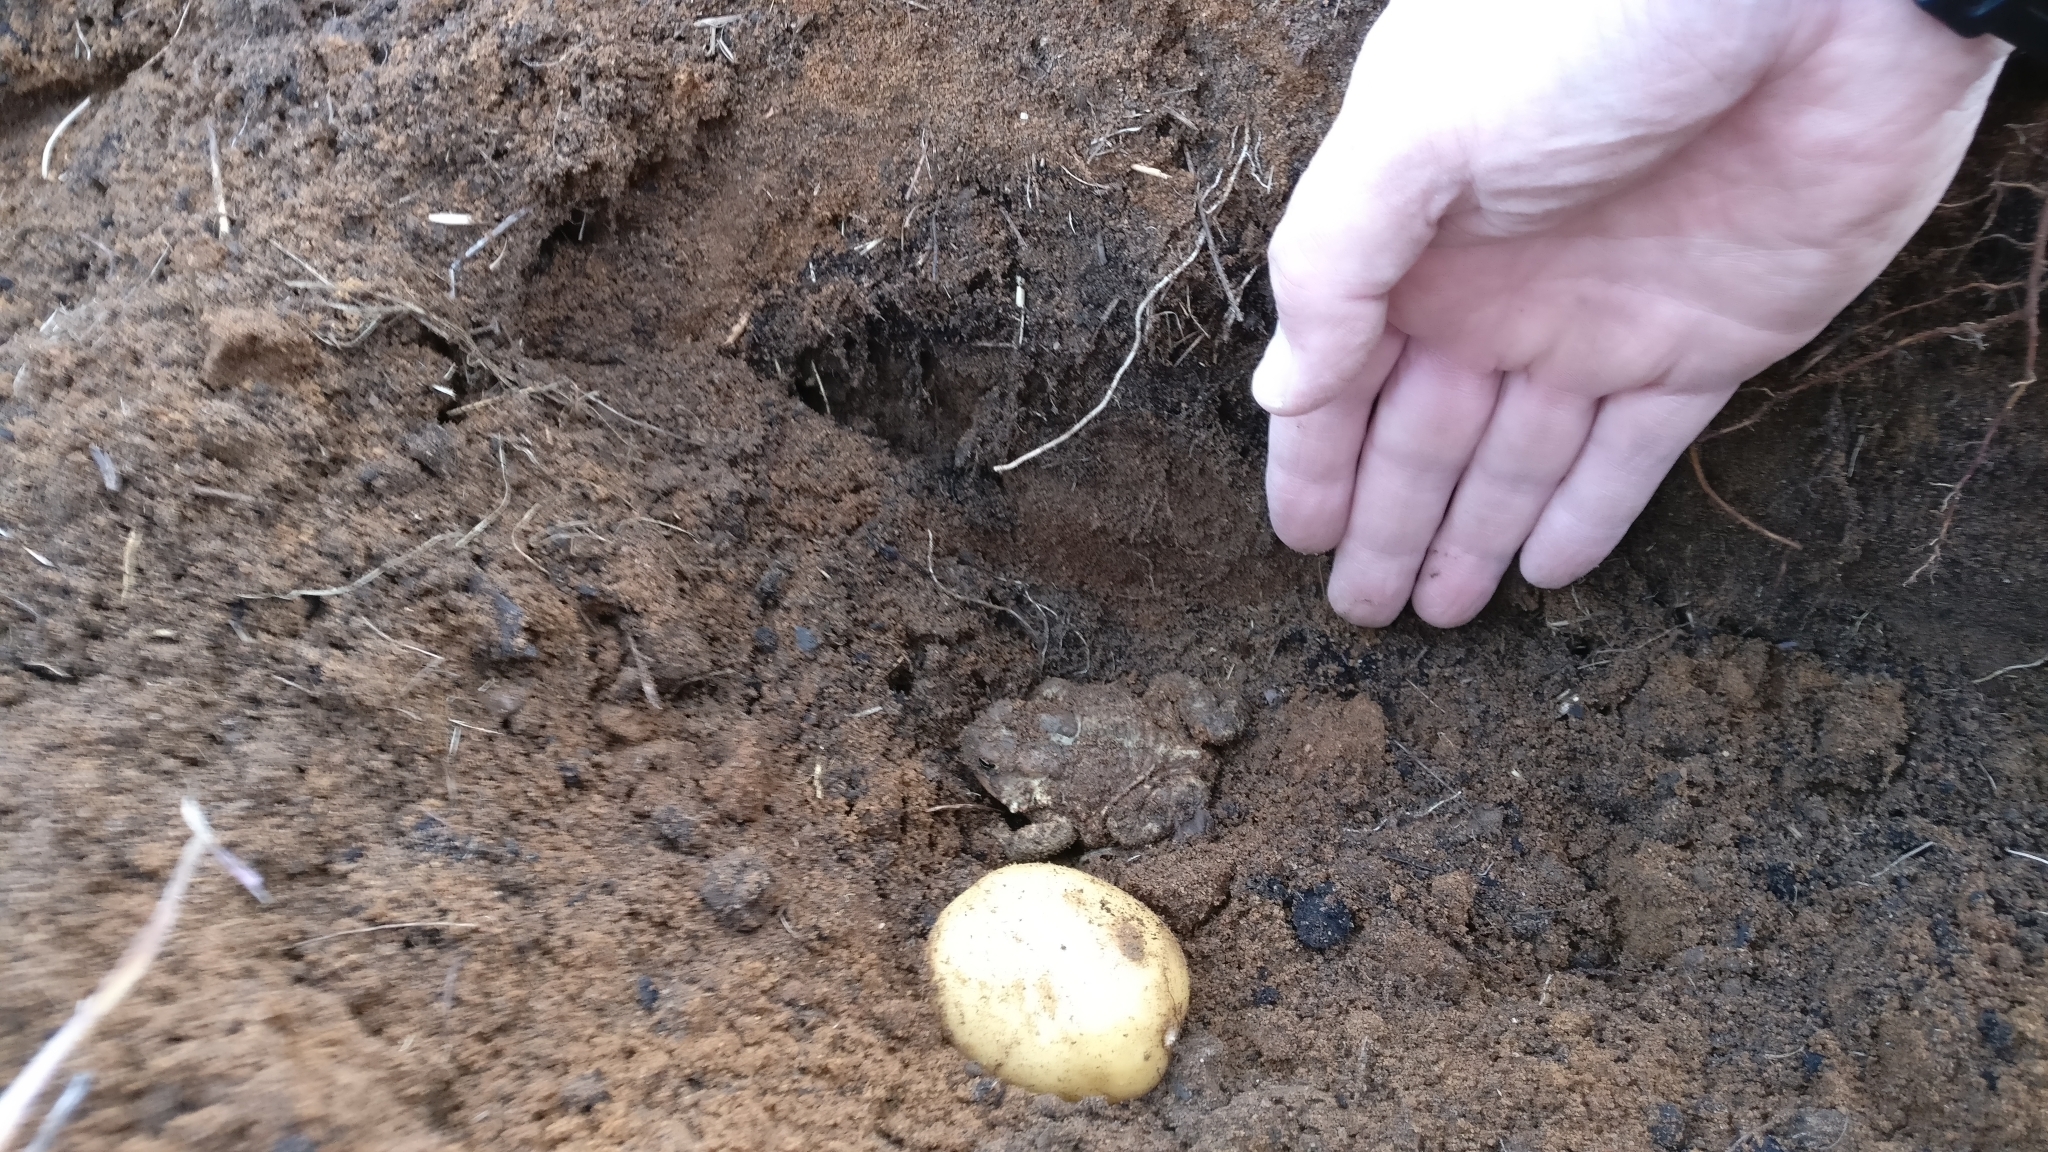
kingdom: Animalia
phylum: Chordata
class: Amphibia
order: Anura
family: Bufonidae
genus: Anaxyrus
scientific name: Anaxyrus americanus
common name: American toad
